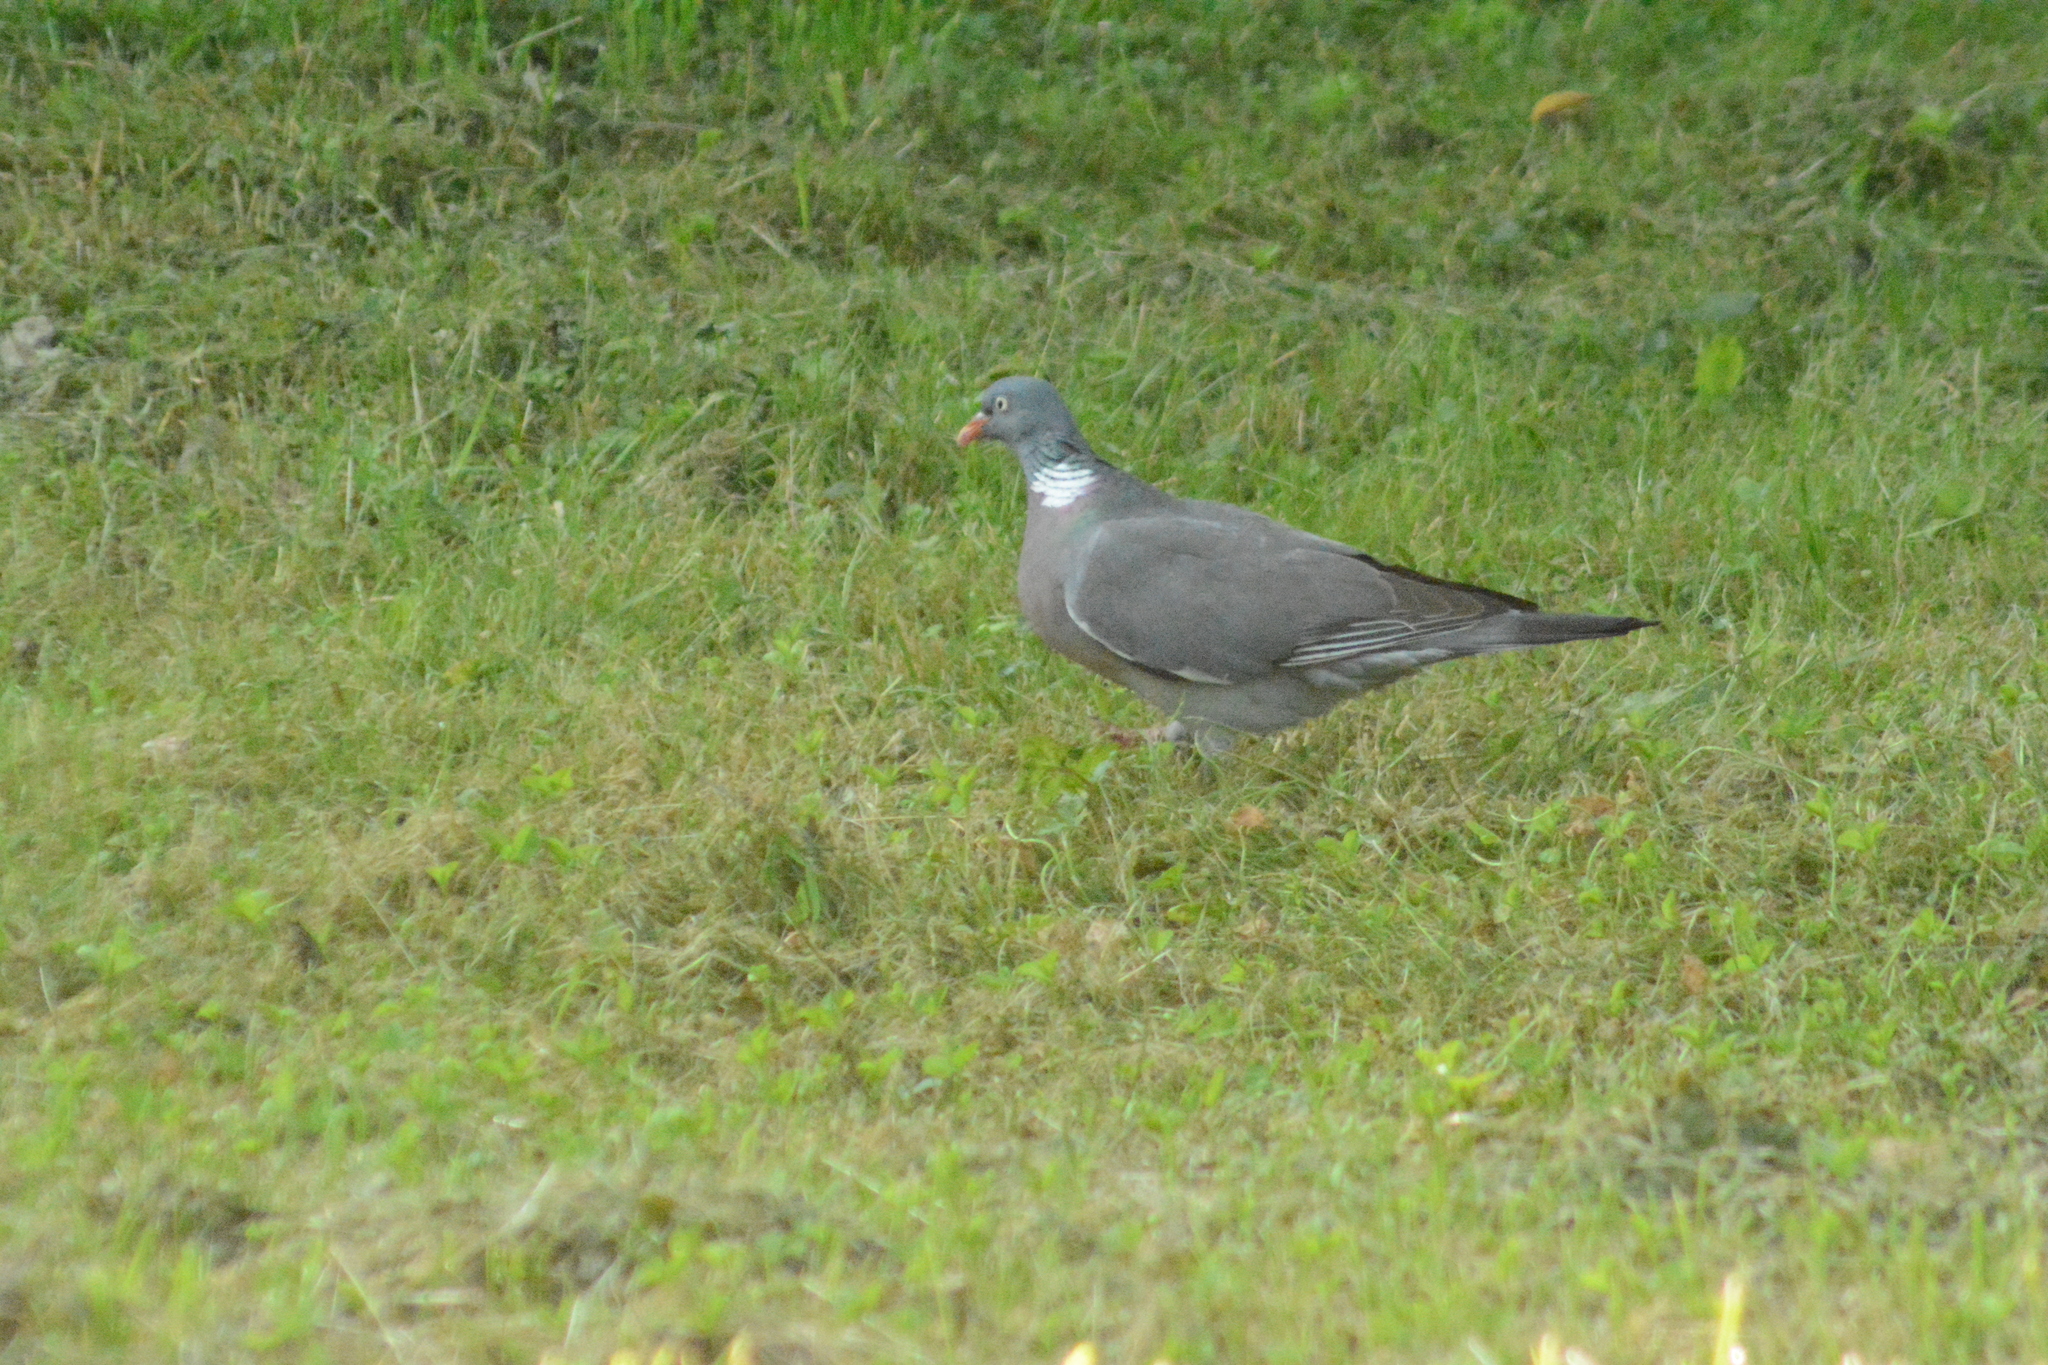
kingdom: Animalia
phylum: Chordata
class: Aves
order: Columbiformes
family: Columbidae
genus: Columba
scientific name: Columba palumbus
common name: Common wood pigeon
